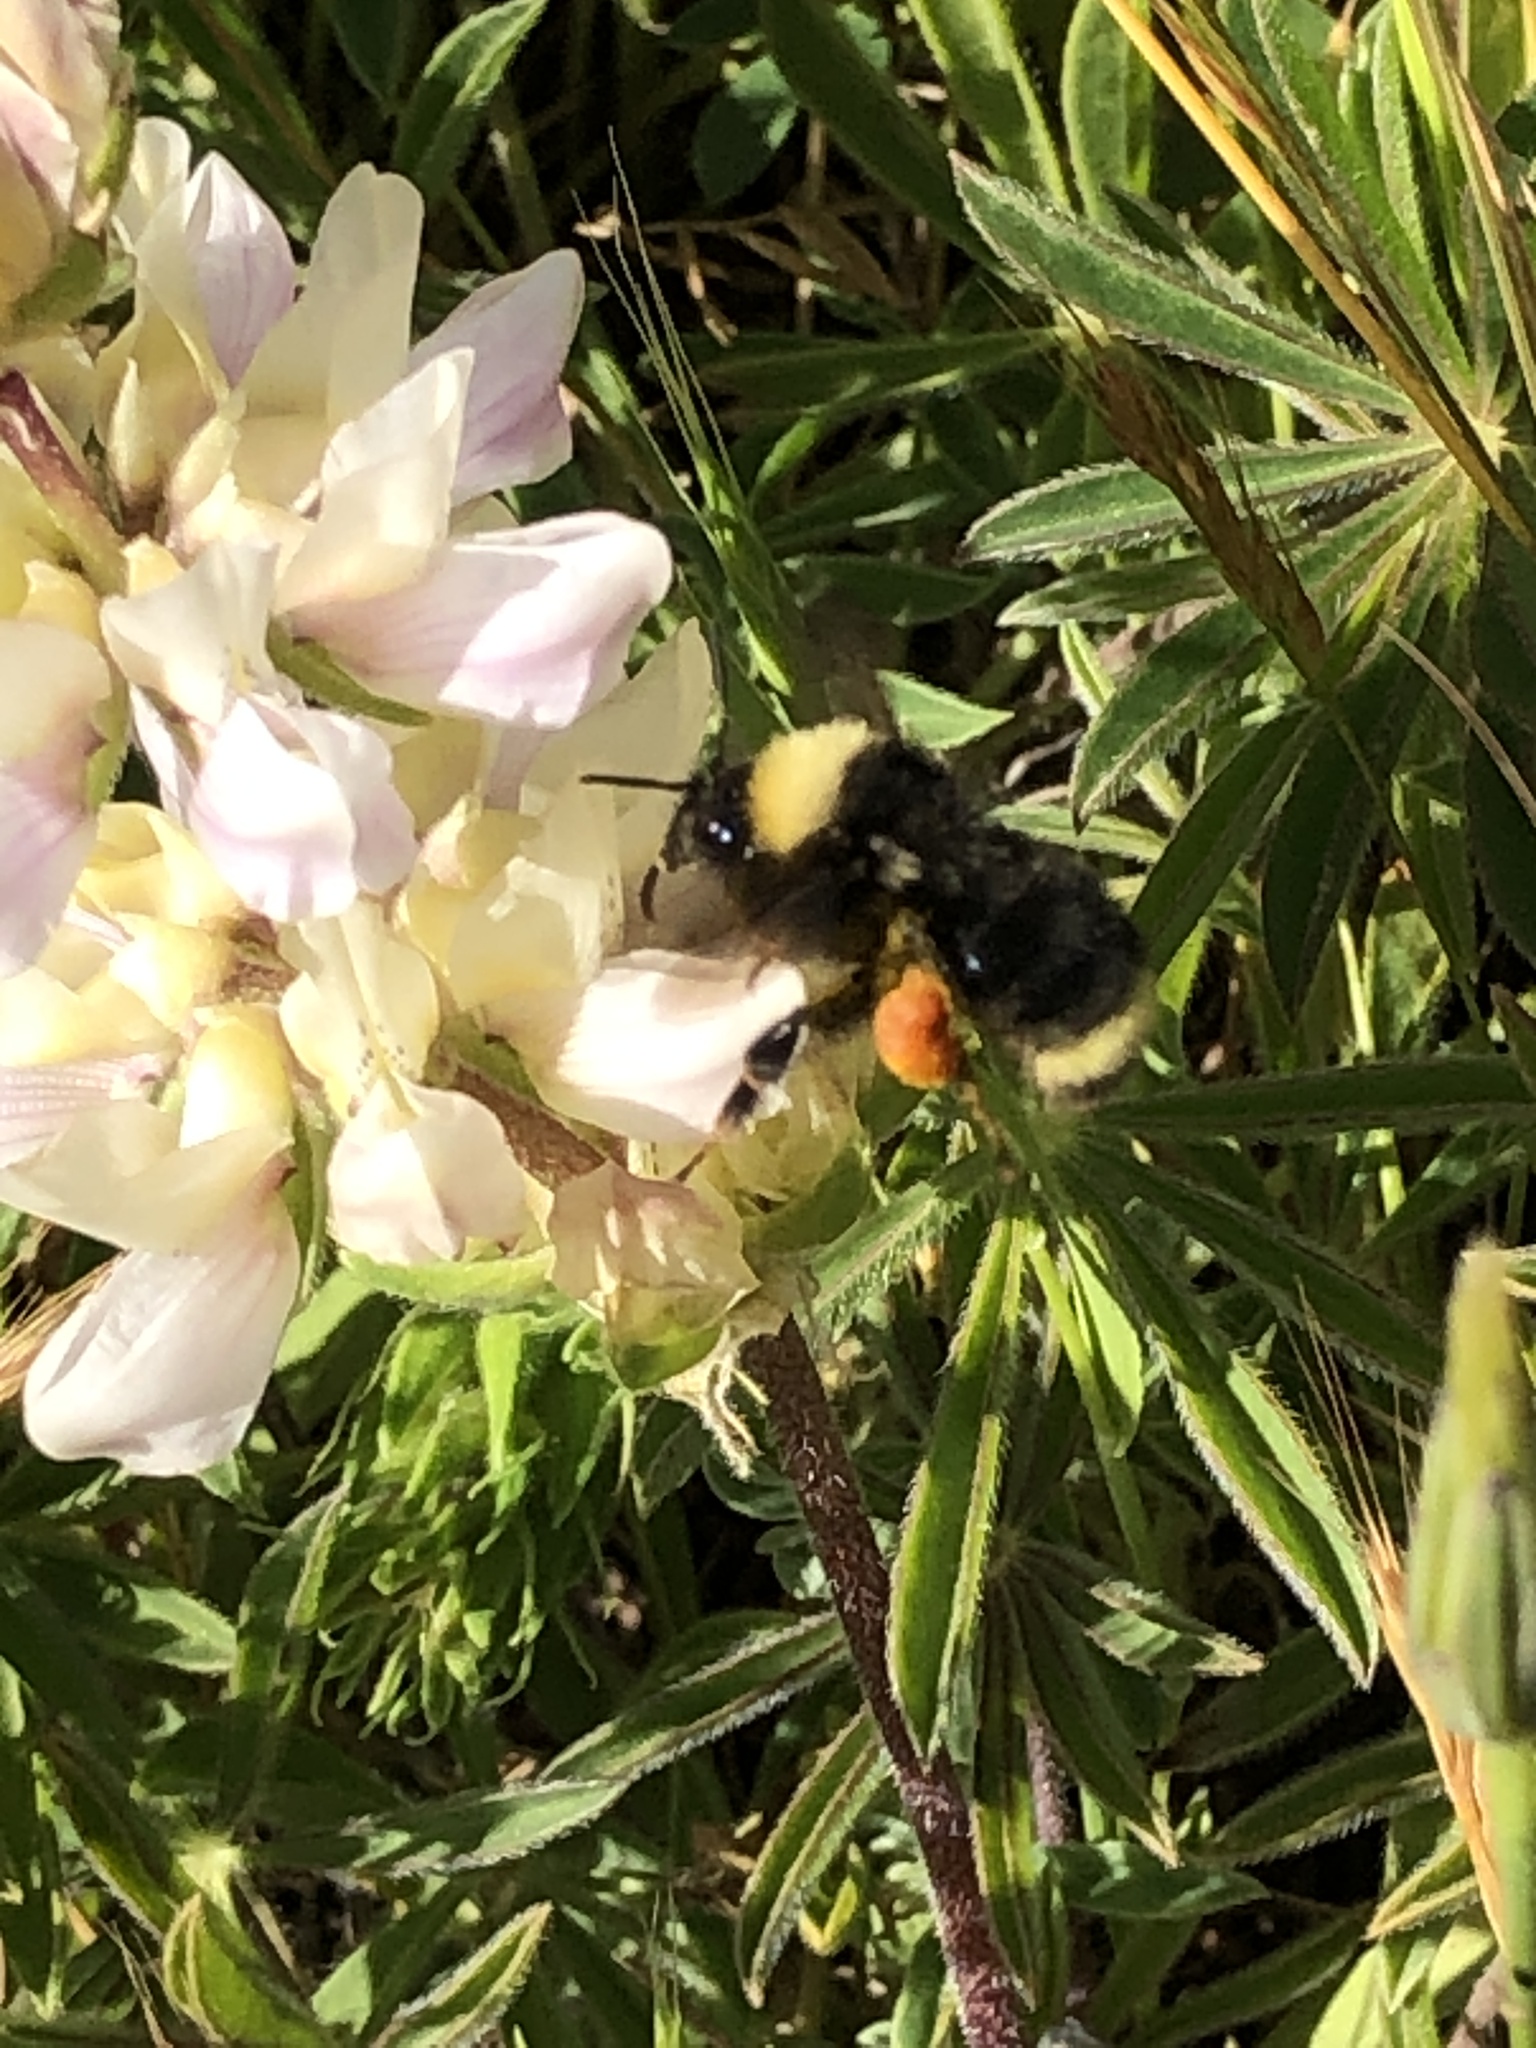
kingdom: Animalia
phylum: Arthropoda
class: Insecta
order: Hymenoptera
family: Apidae
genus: Bombus
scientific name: Bombus californicus
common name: California bumble bee
